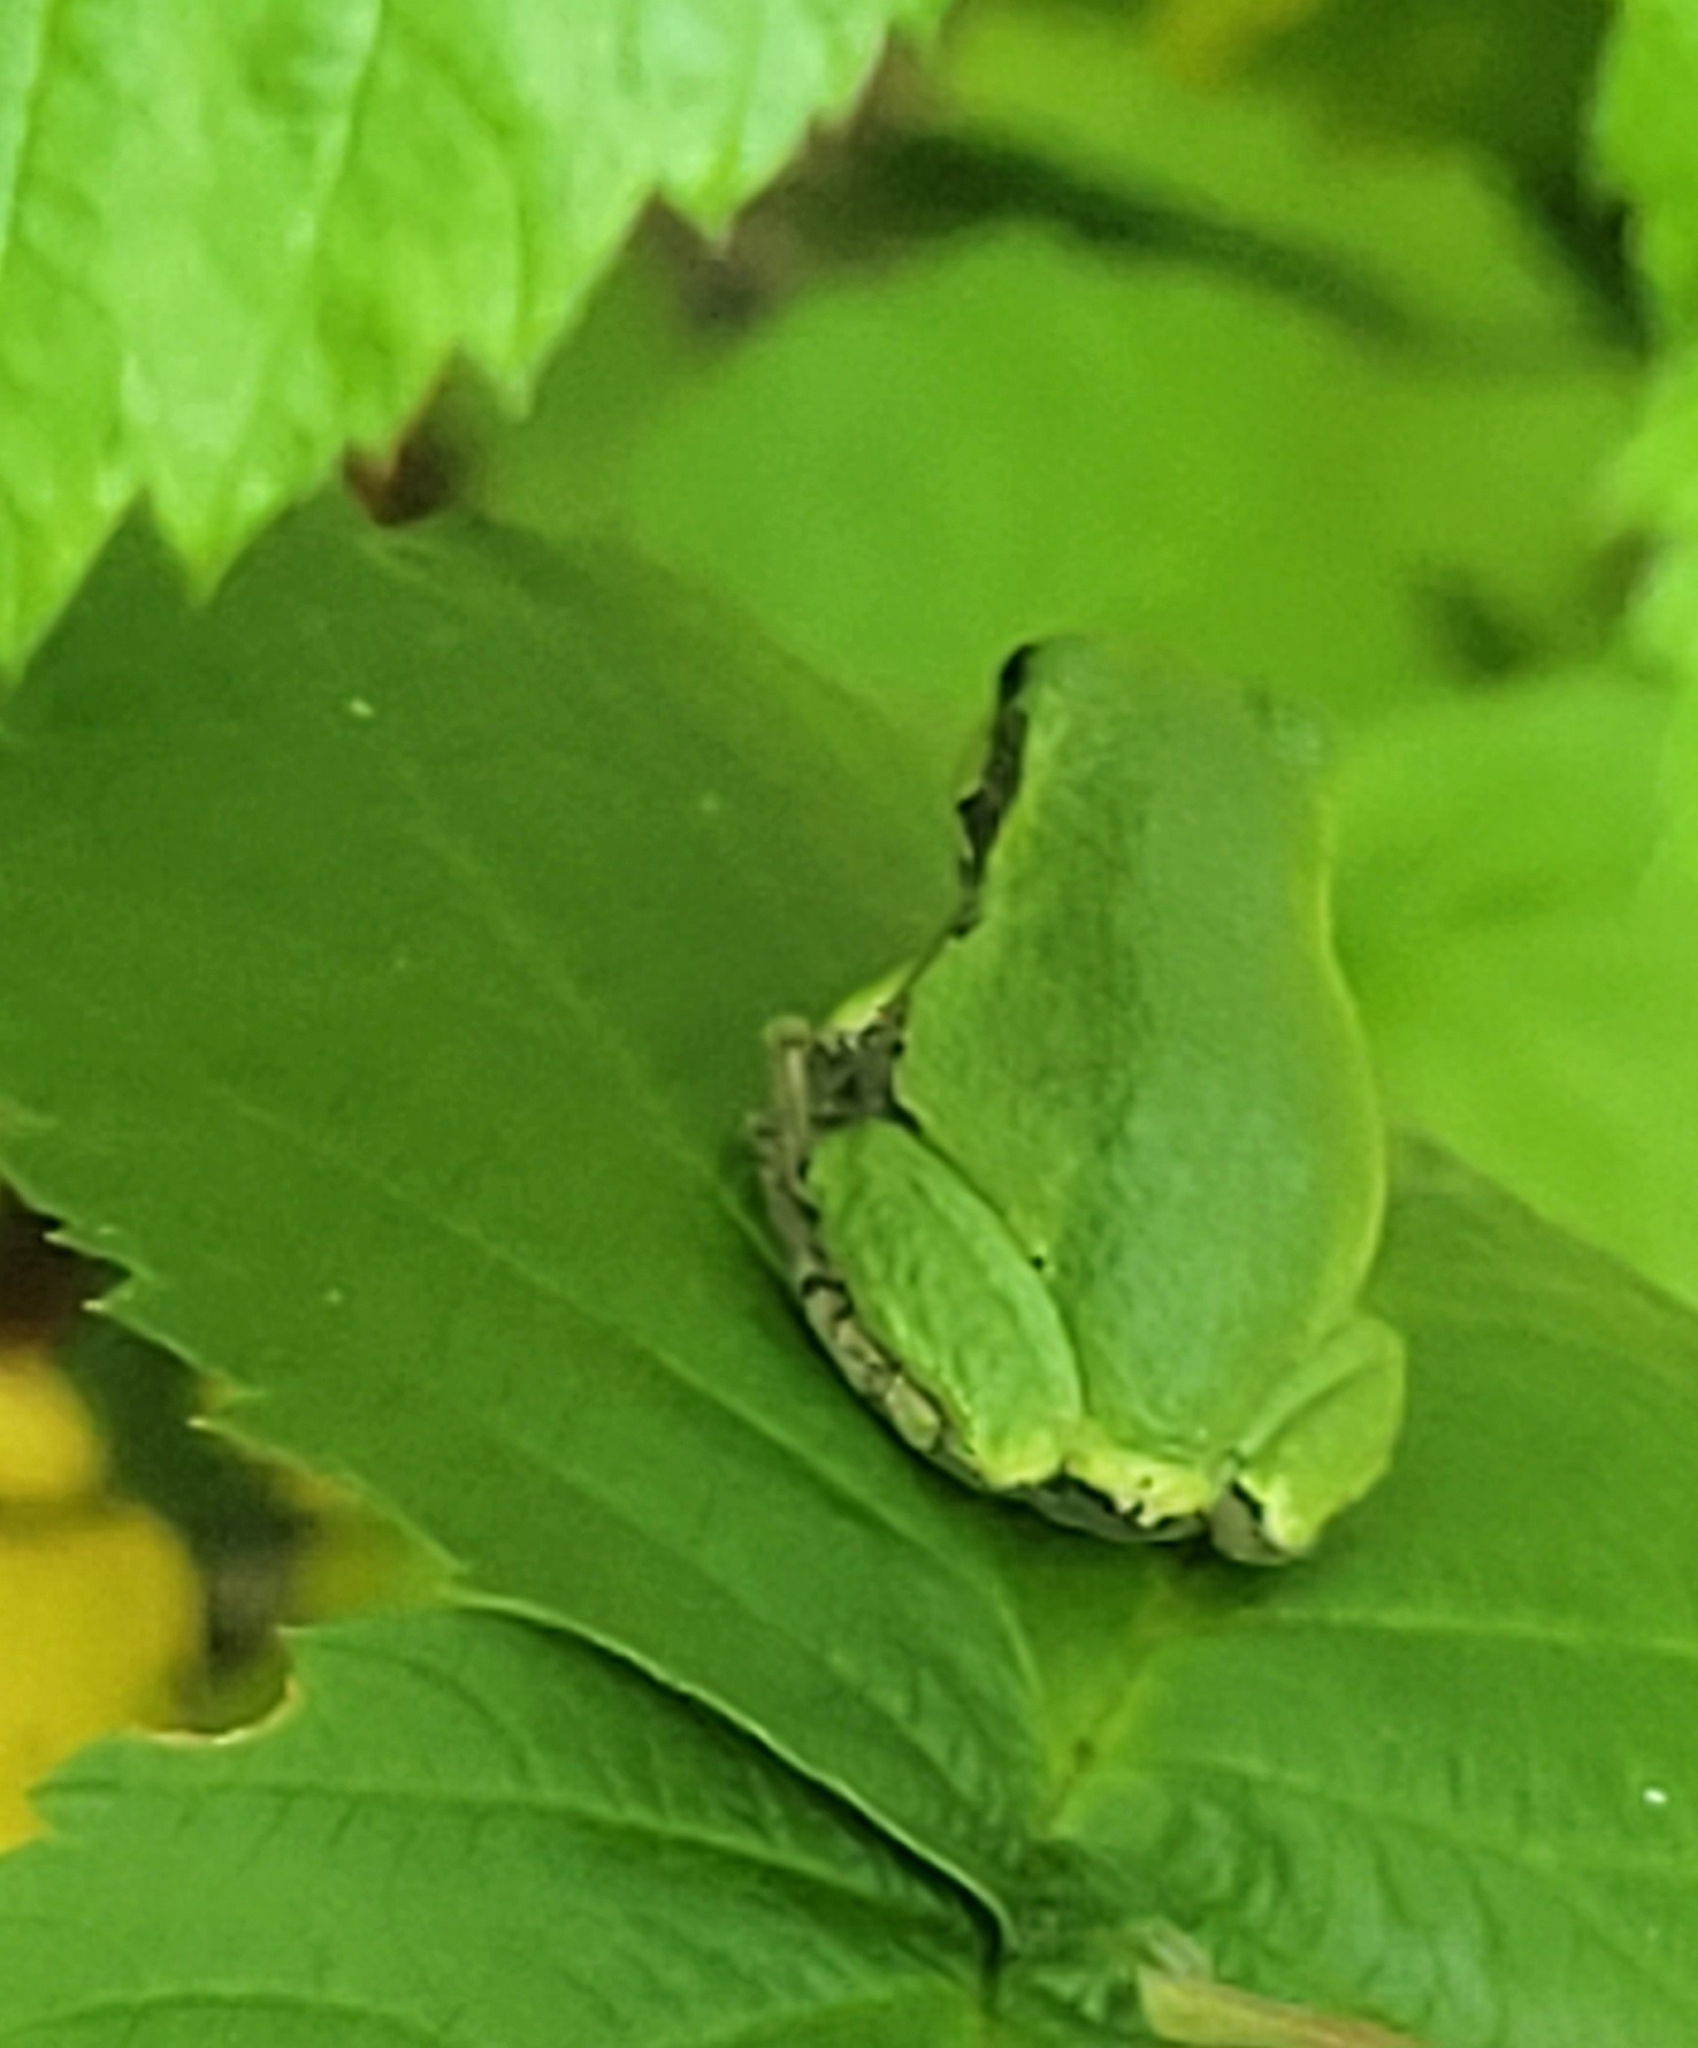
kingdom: Animalia
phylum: Chordata
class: Amphibia
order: Anura
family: Hylidae
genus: Dryophytes
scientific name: Dryophytes versicolor
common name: Gray treefrog
